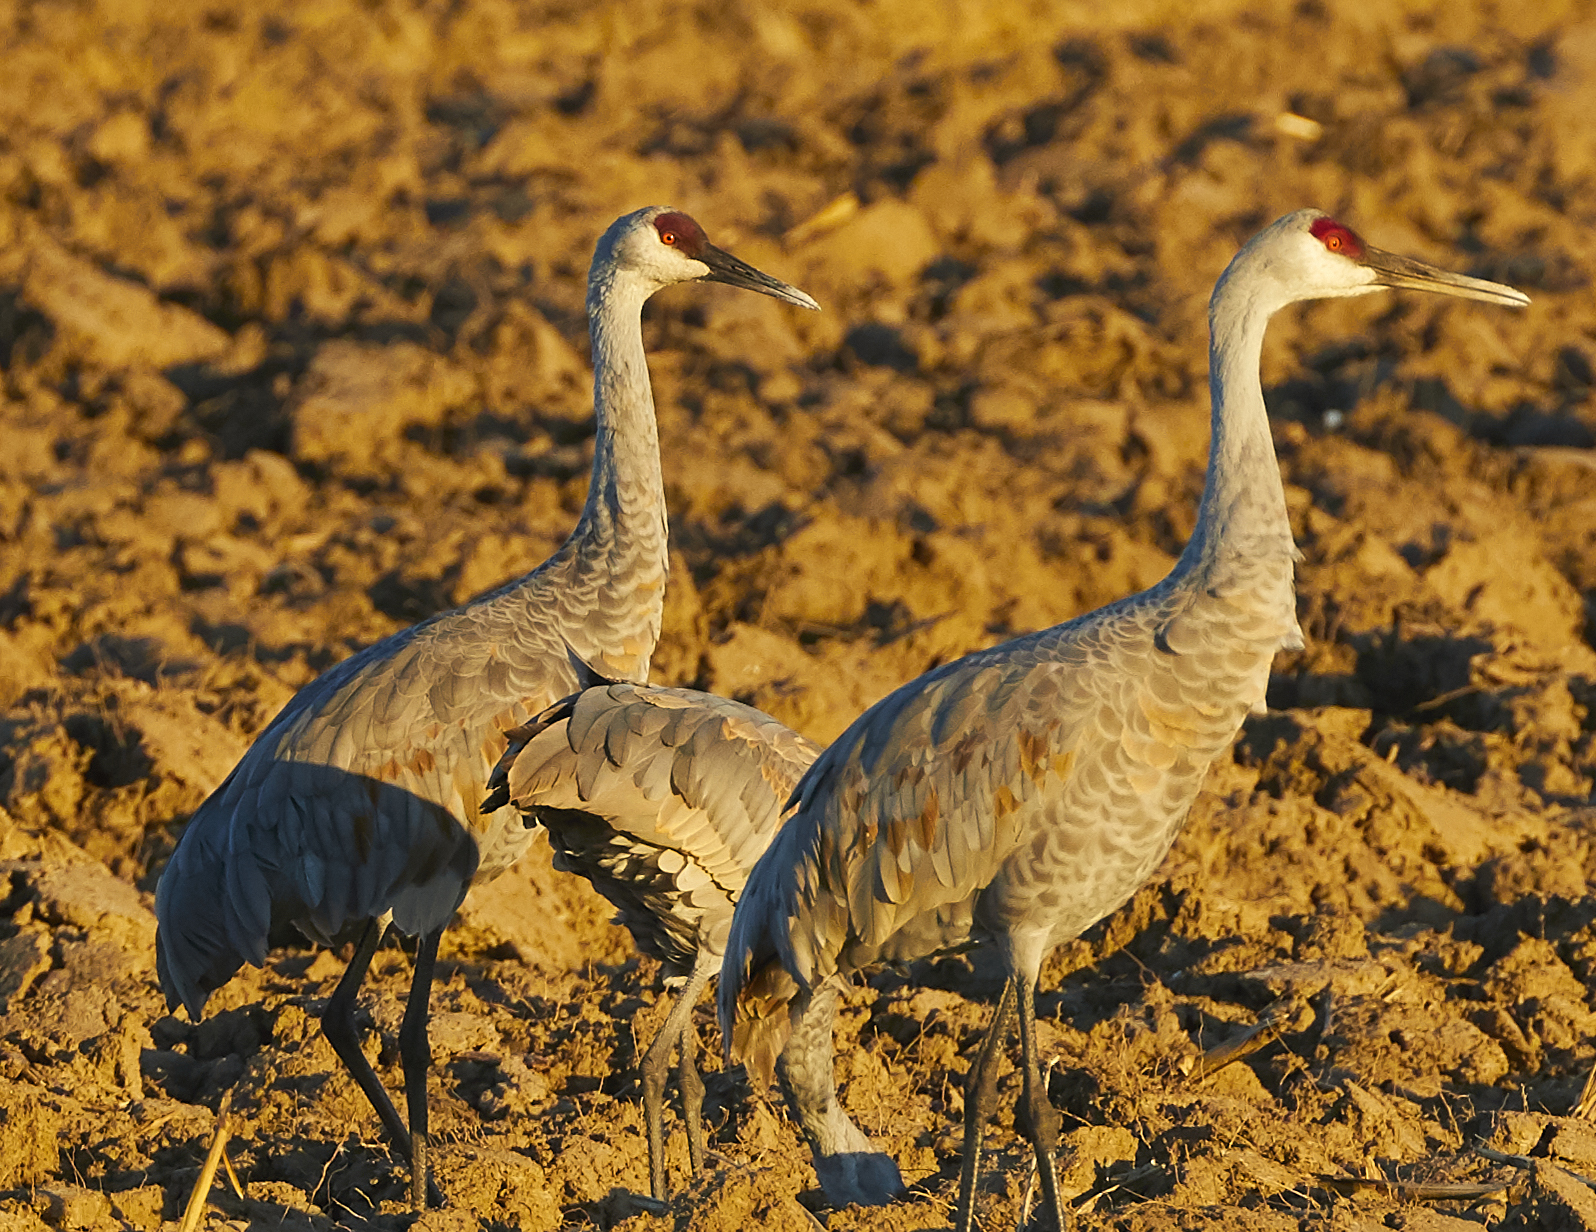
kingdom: Animalia
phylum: Chordata
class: Aves
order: Gruiformes
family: Gruidae
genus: Grus
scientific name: Grus canadensis
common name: Sandhill crane
